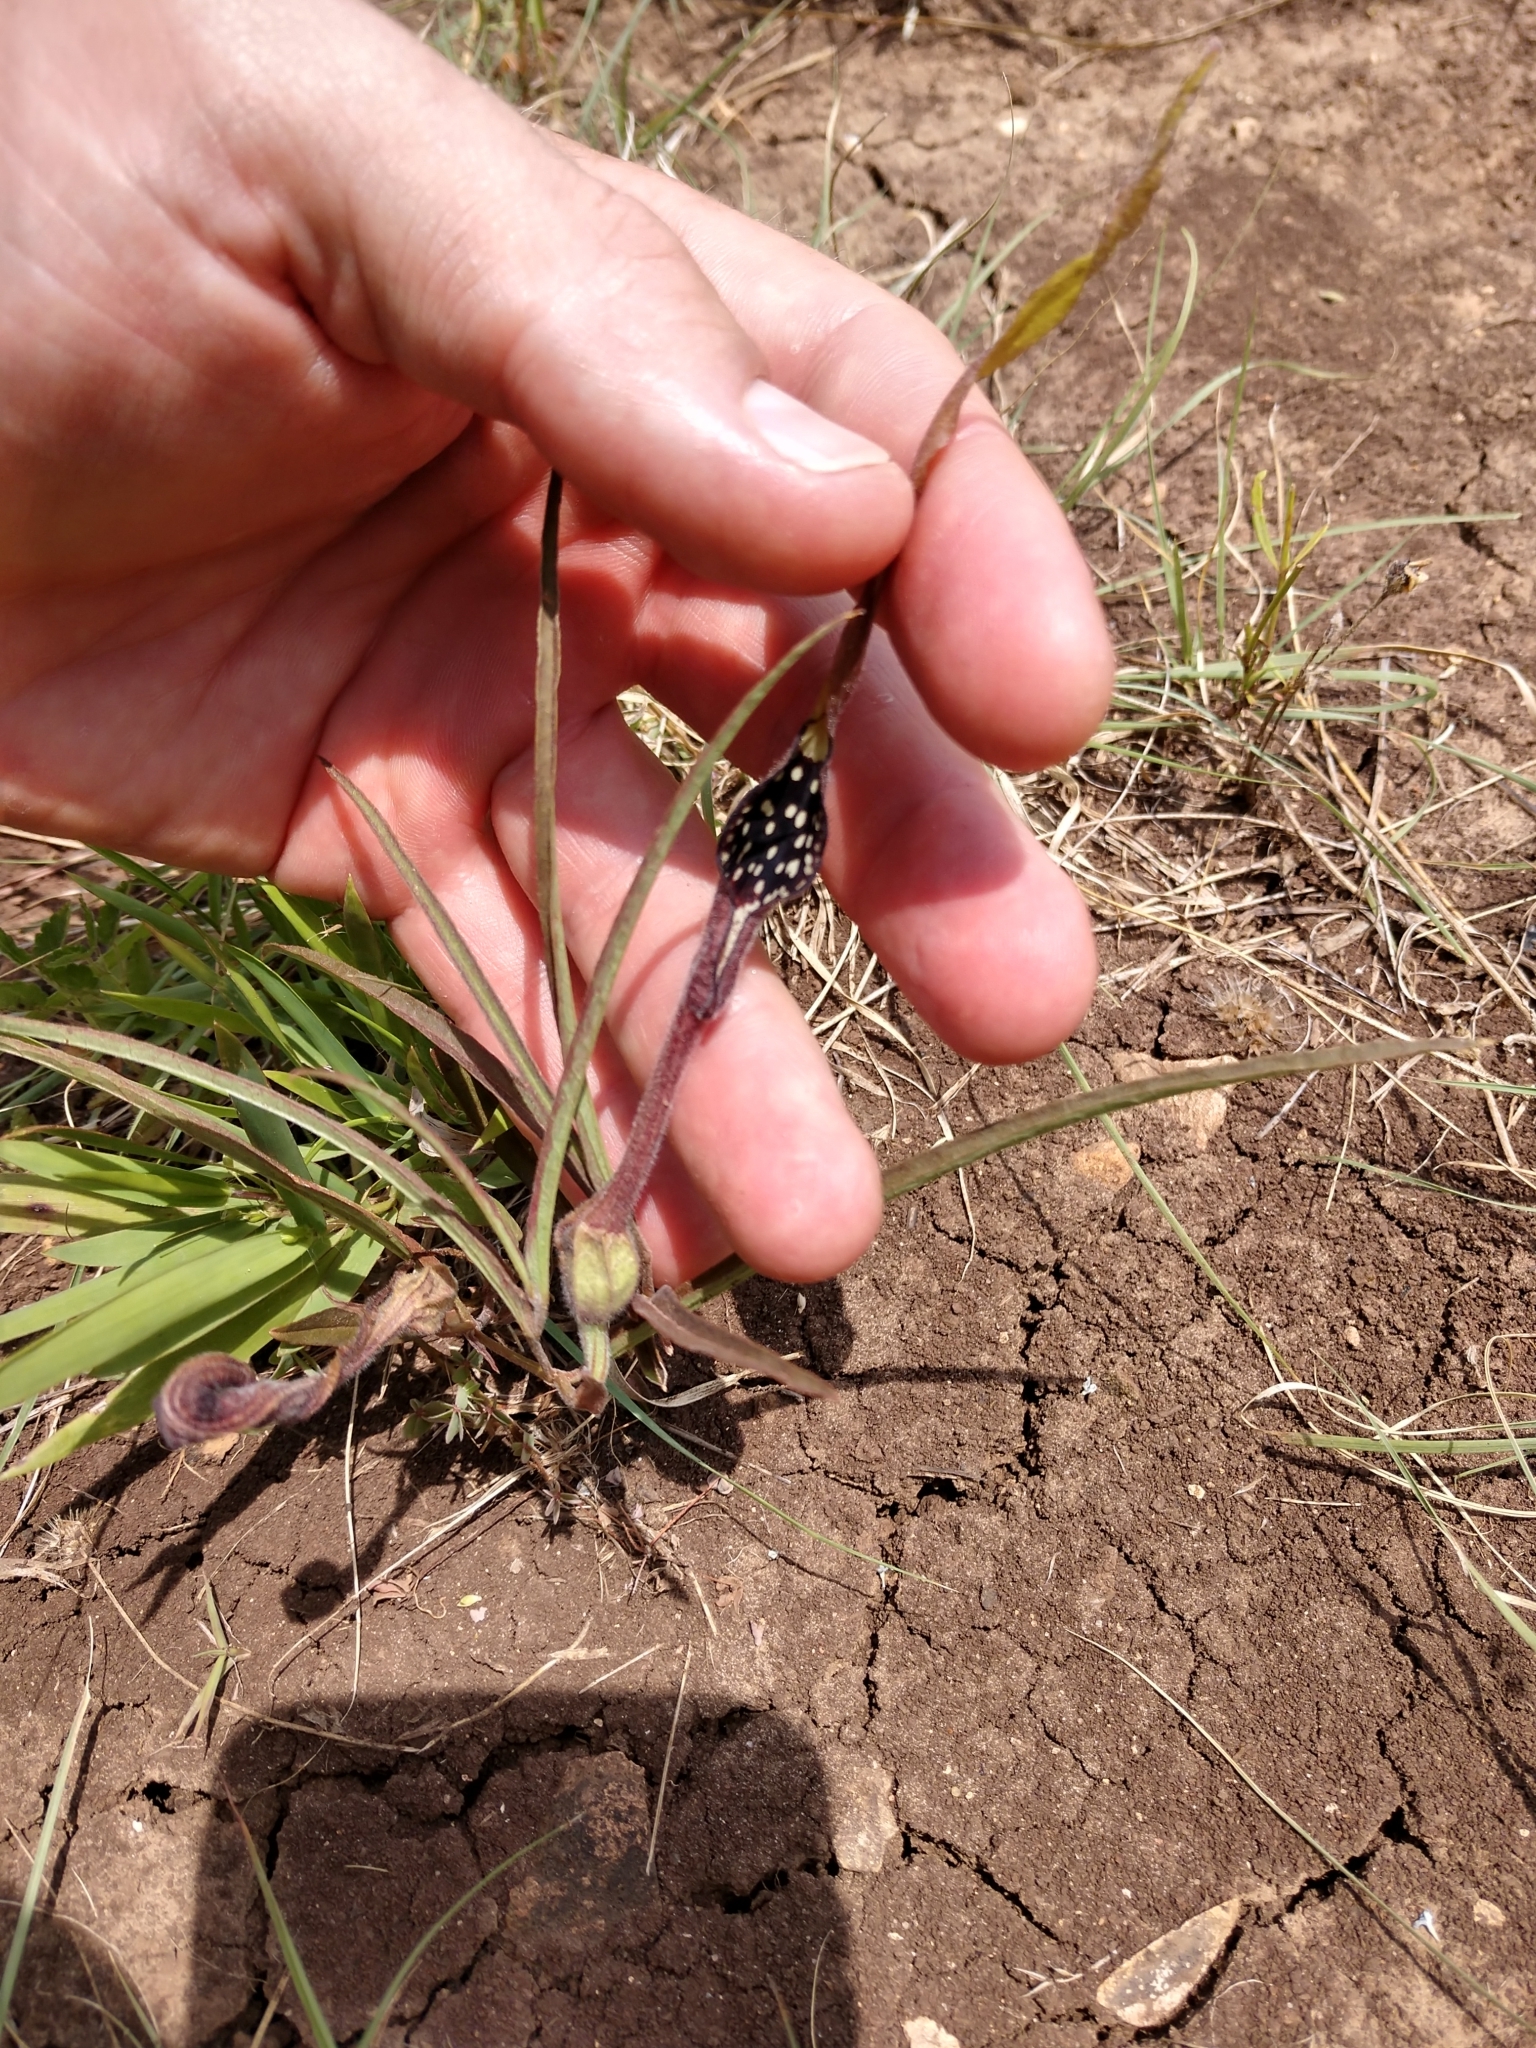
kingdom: Plantae
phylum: Tracheophyta
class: Magnoliopsida
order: Piperales
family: Aristolochiaceae
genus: Aristolochia
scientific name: Aristolochia erecta
